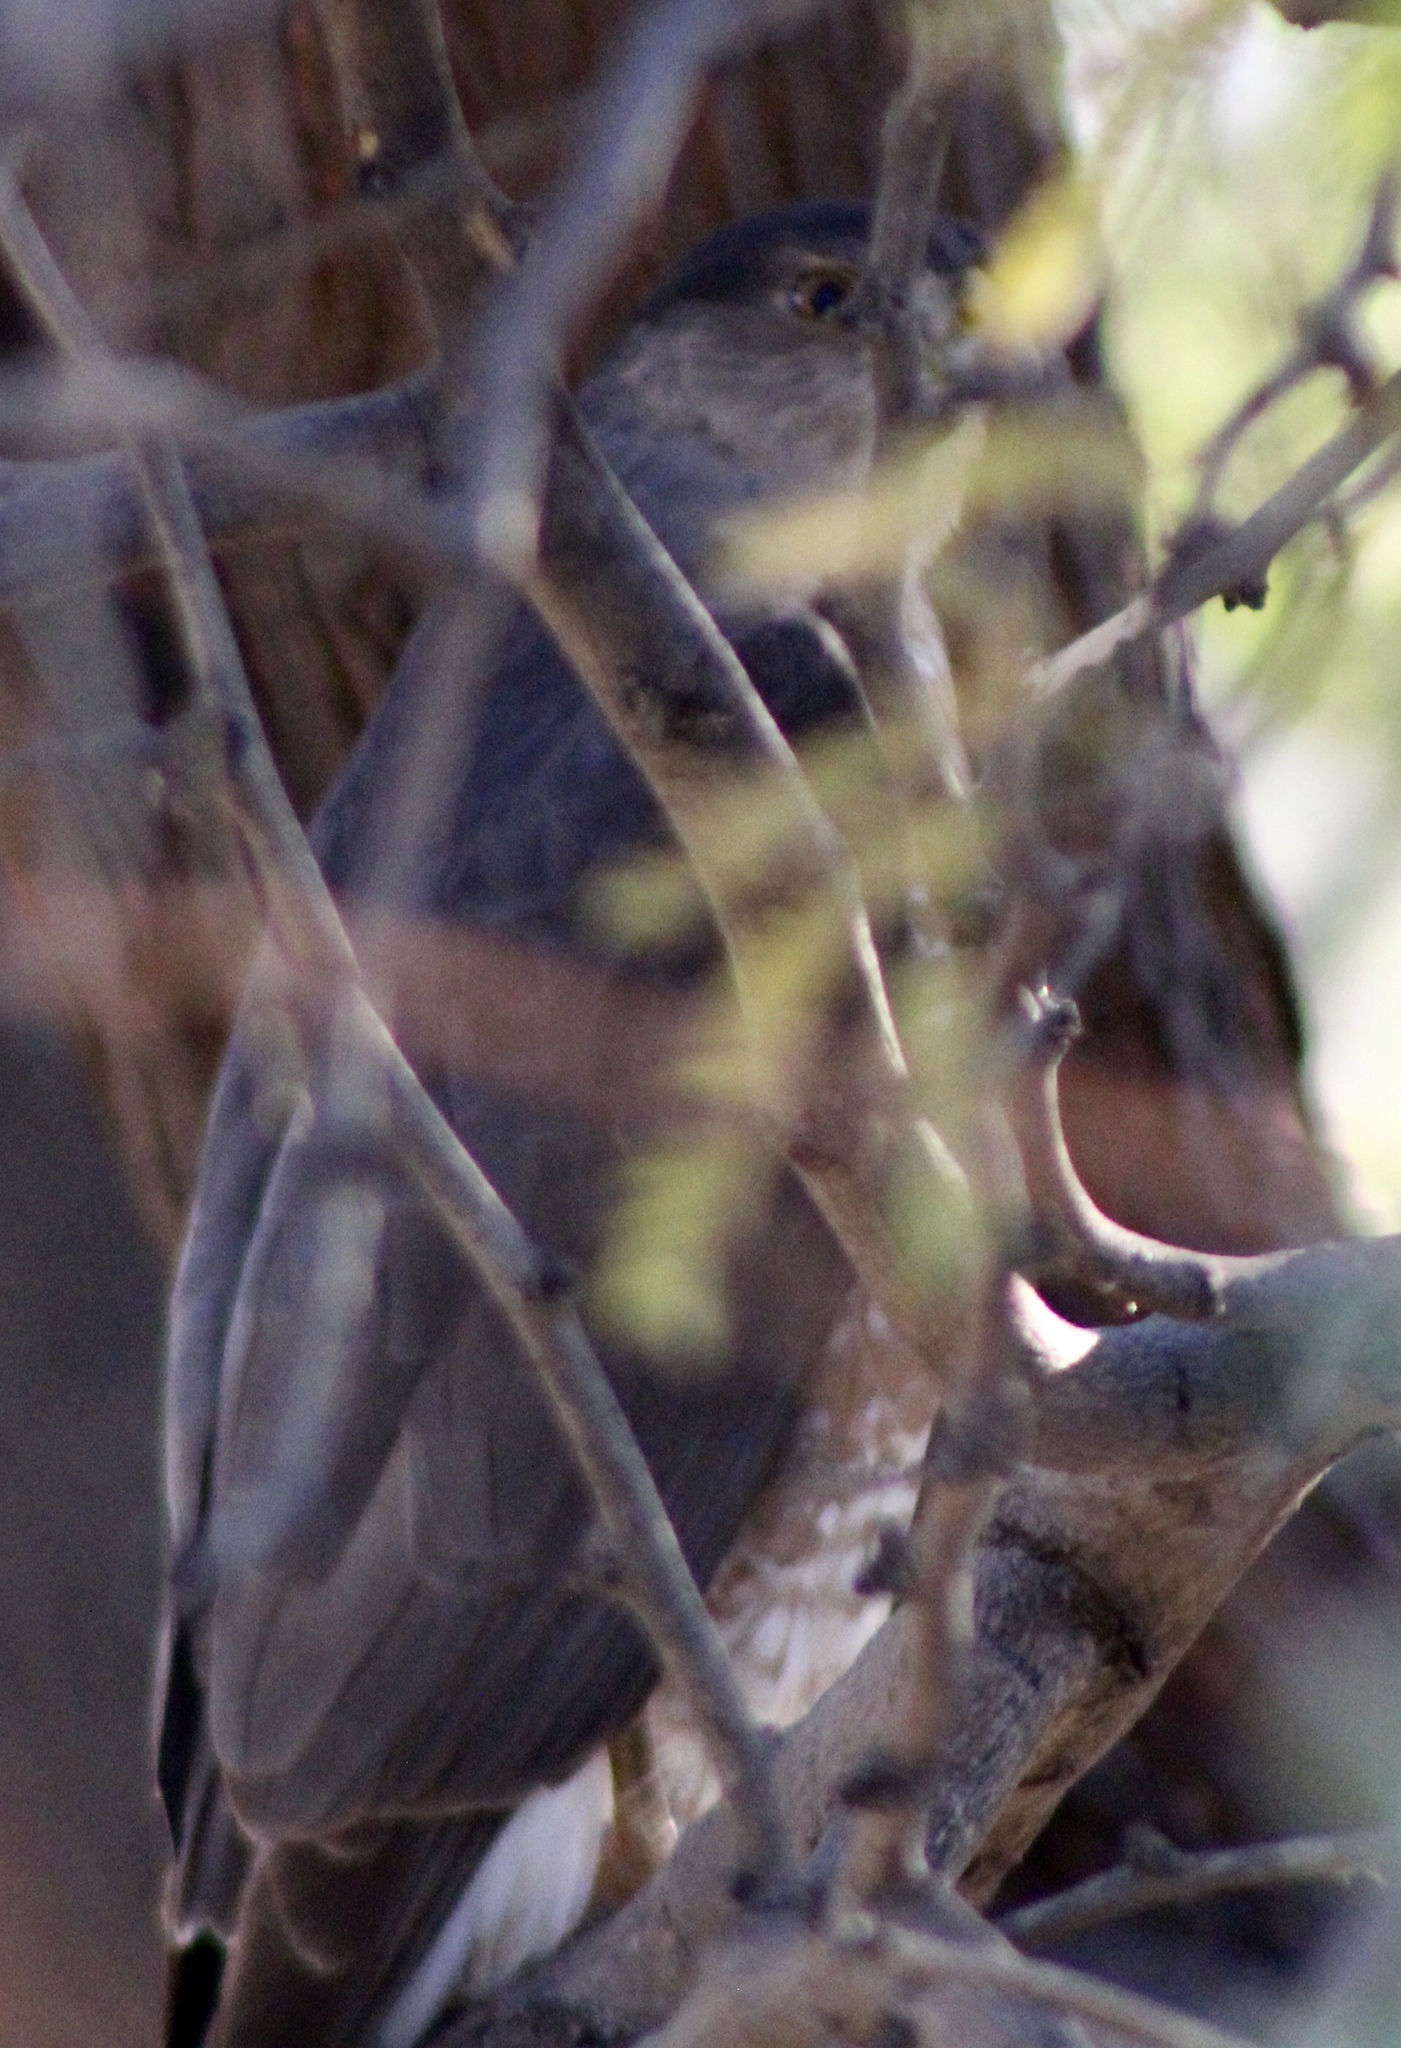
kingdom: Animalia
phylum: Chordata
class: Aves
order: Accipitriformes
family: Accipitridae
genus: Accipiter
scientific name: Accipiter cooperii
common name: Cooper's hawk
